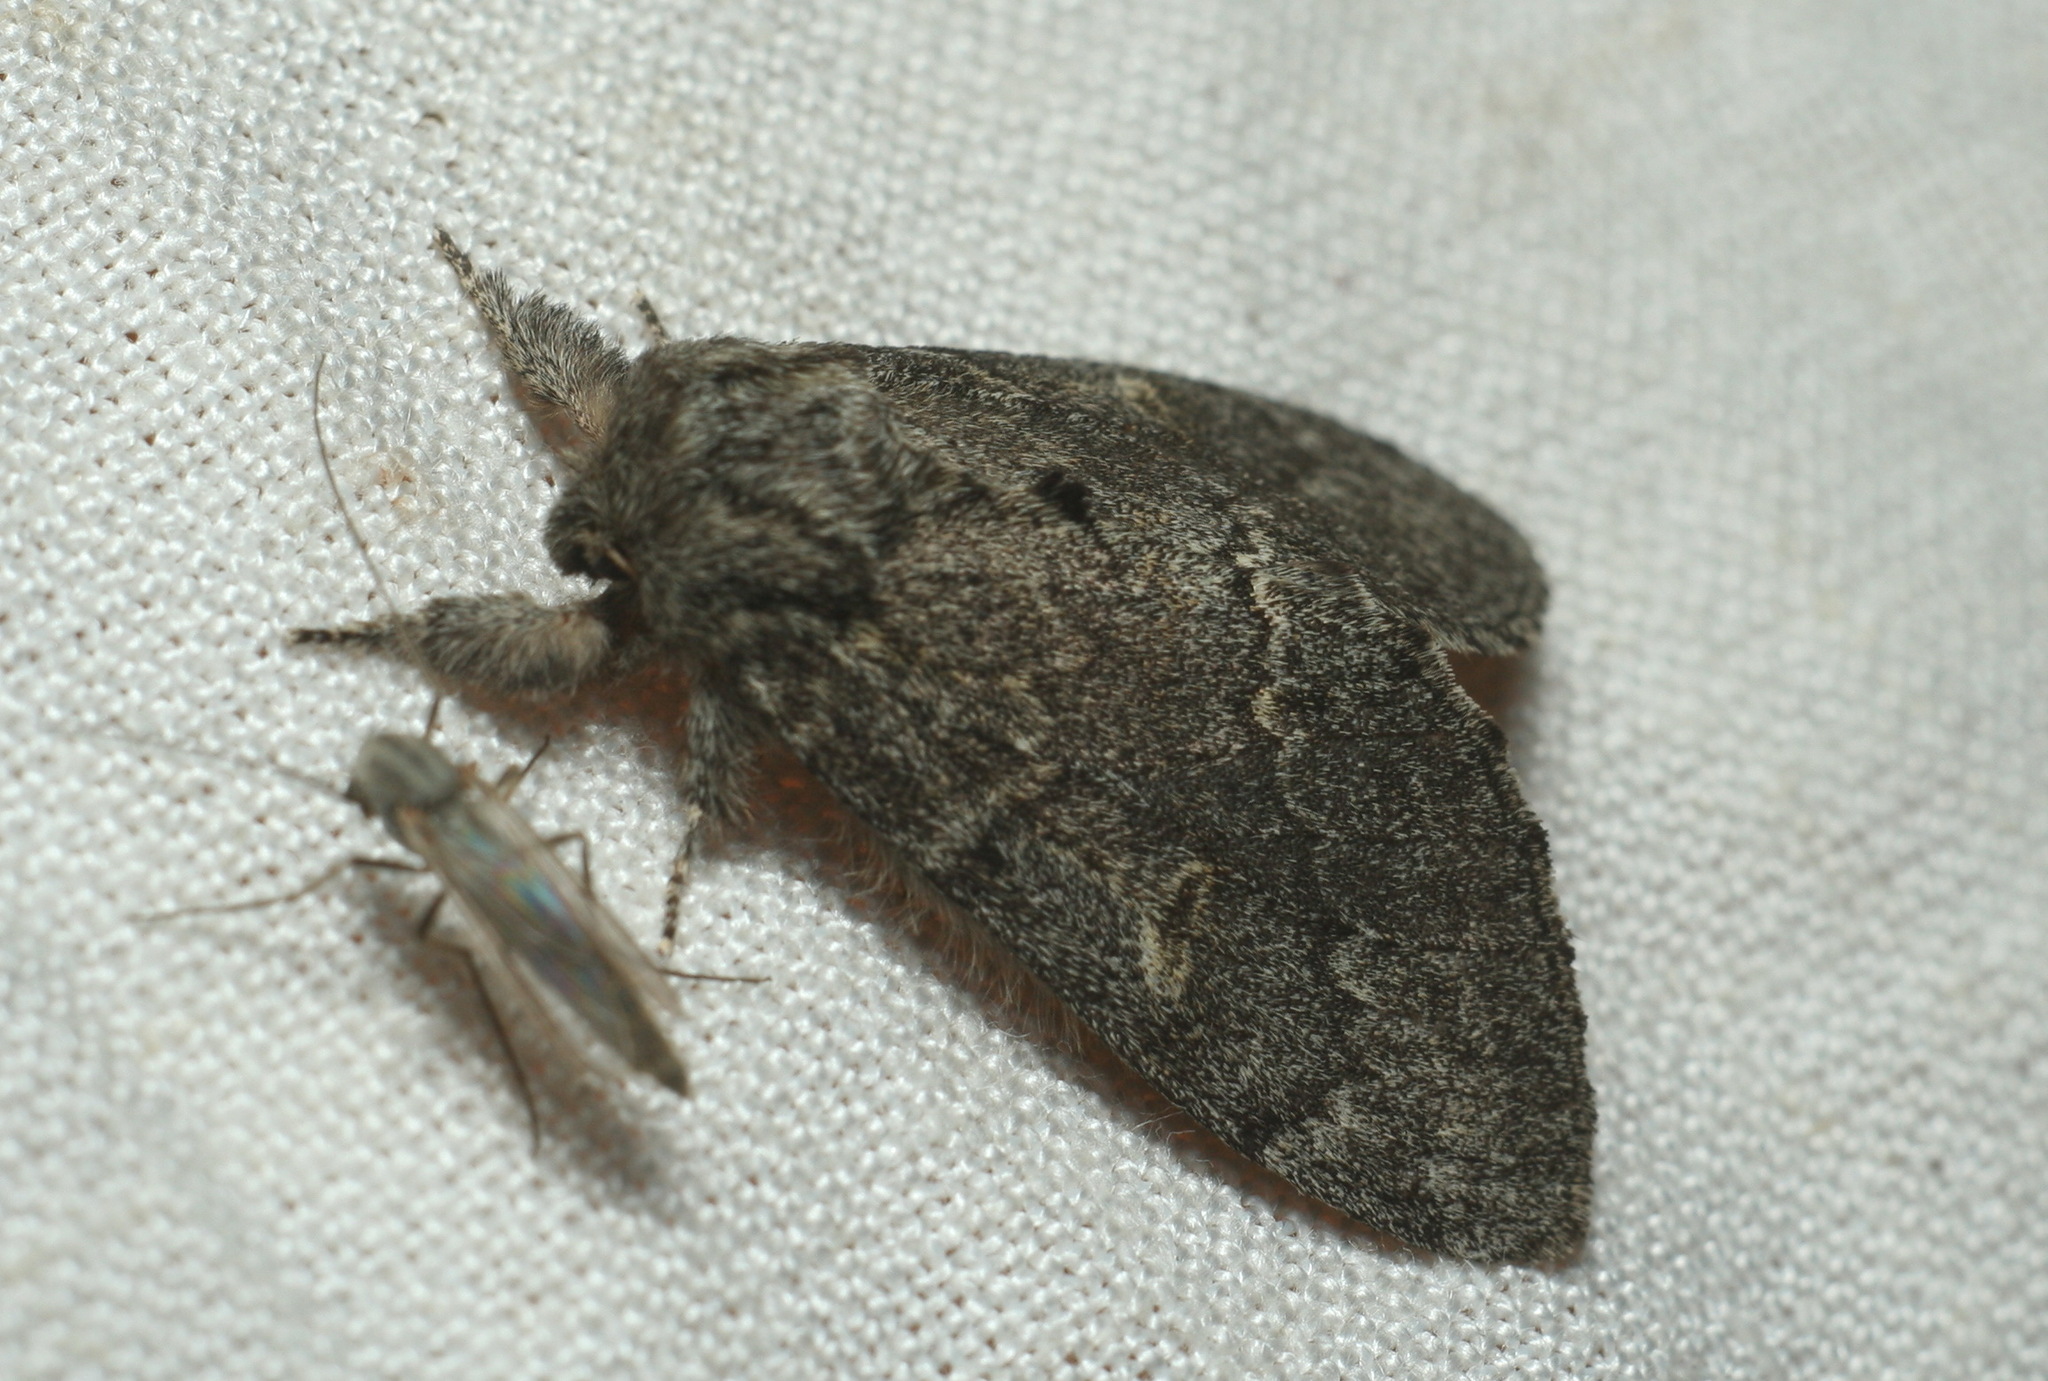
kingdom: Animalia
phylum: Arthropoda
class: Insecta
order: Lepidoptera
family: Notodontidae
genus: Notodonta
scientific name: Notodonta torva
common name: Large dark prominent
